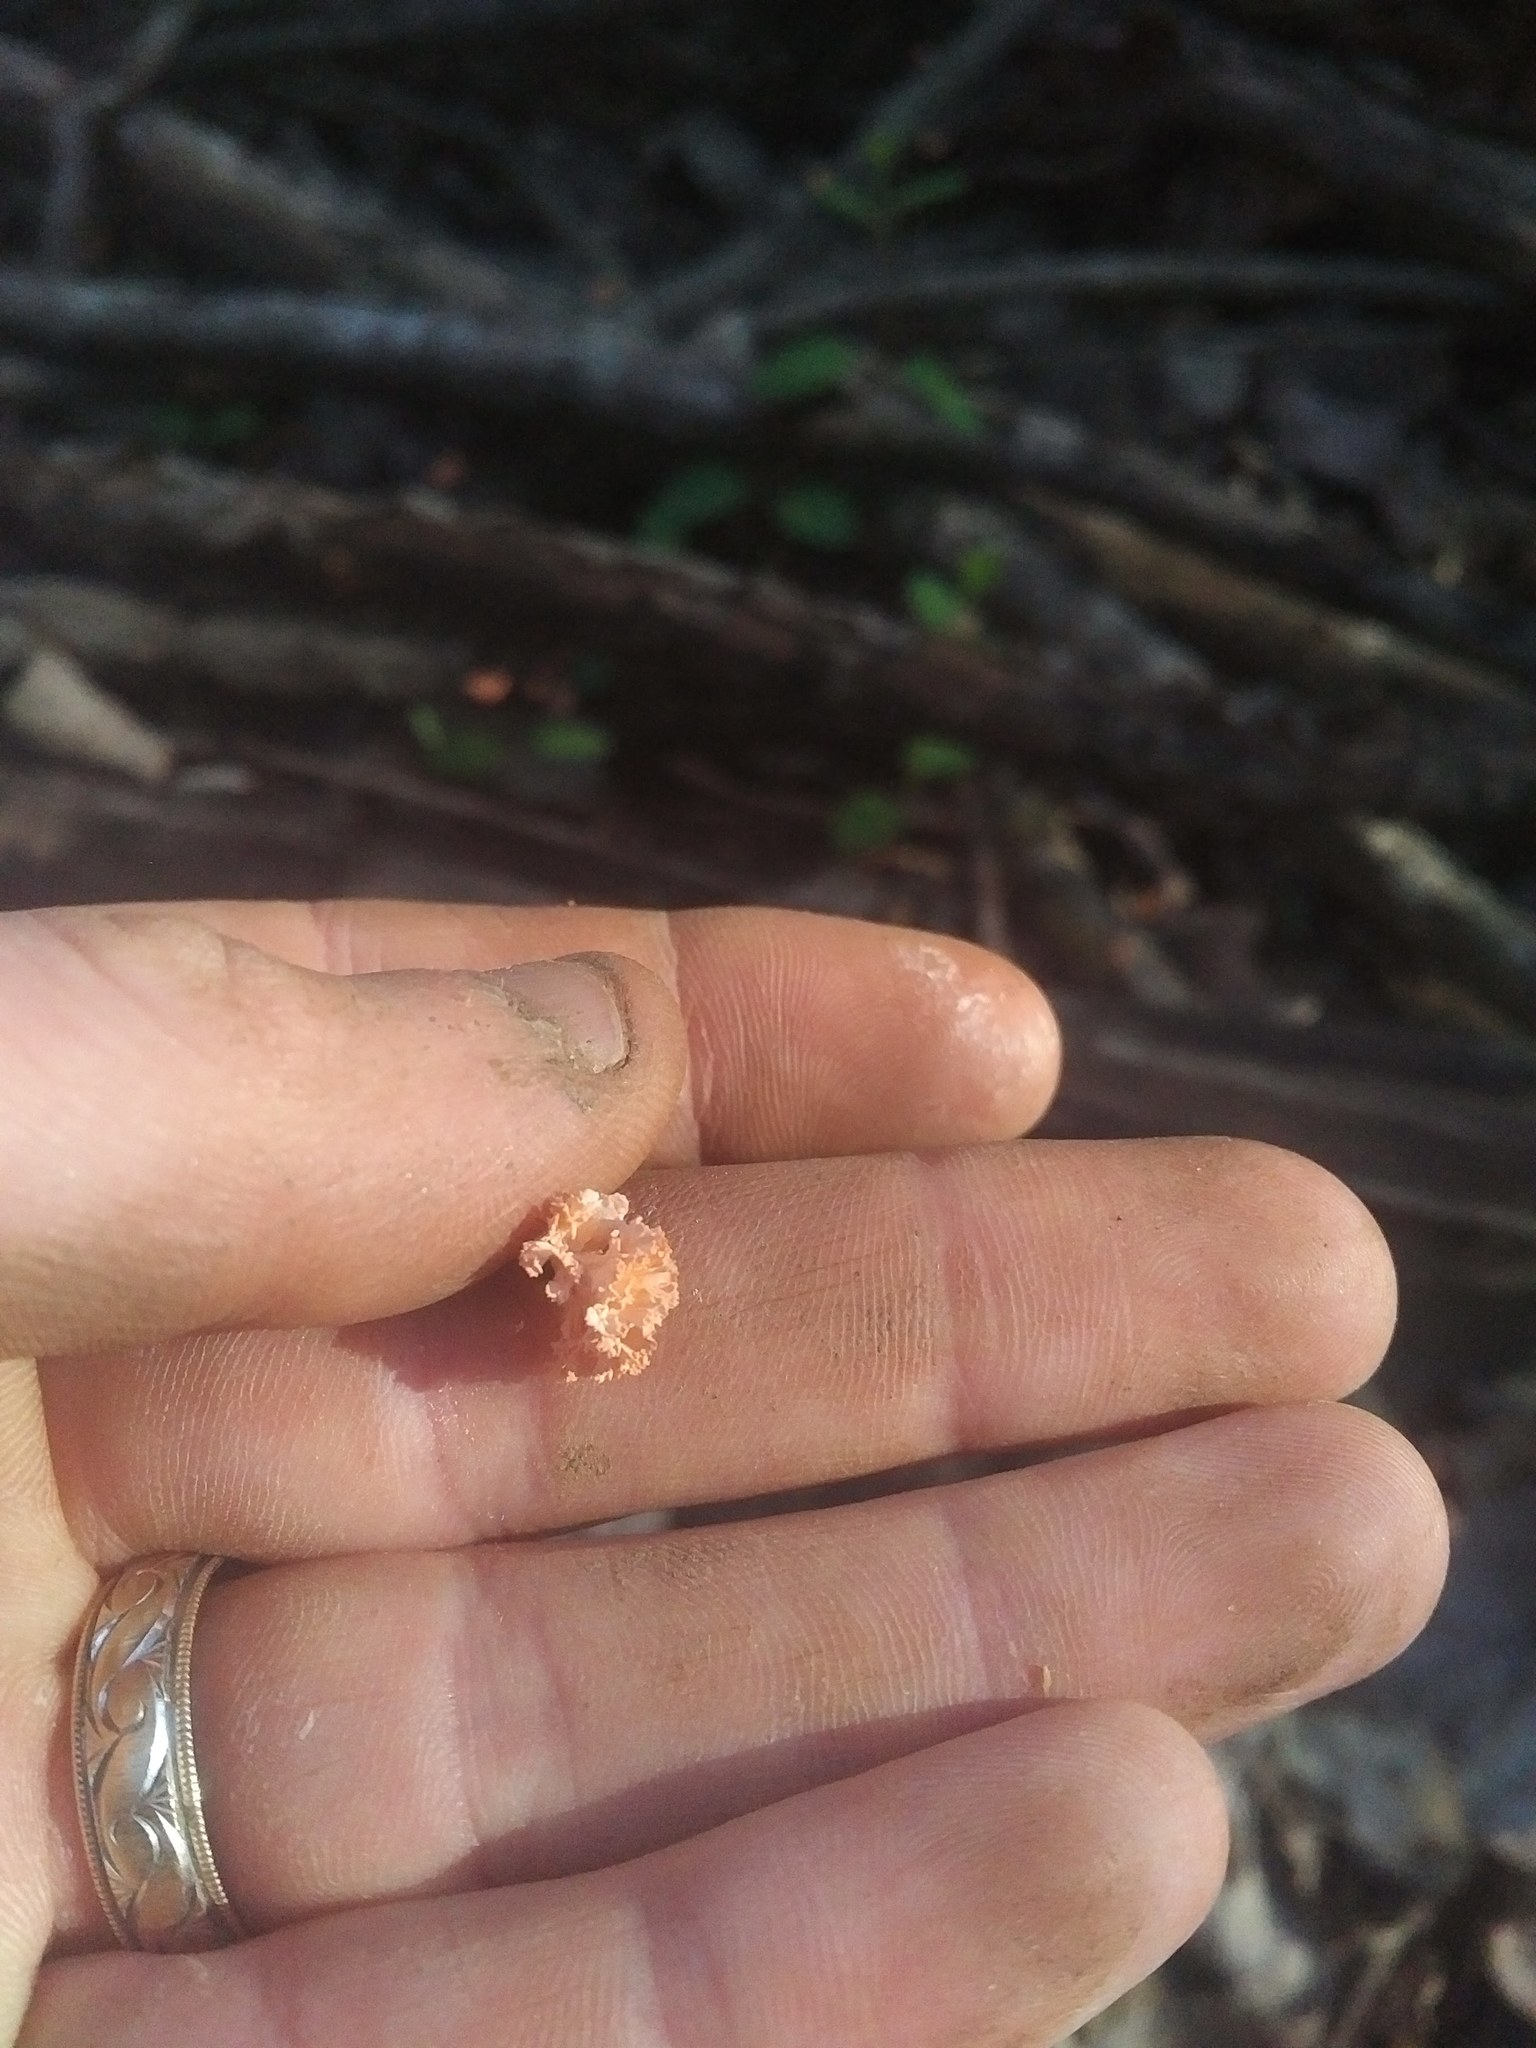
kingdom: Fungi
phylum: Ascomycota
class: Sordariomycetes
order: Xylariales
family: Xylariaceae
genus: Xylaria
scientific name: Xylaria cubensis
